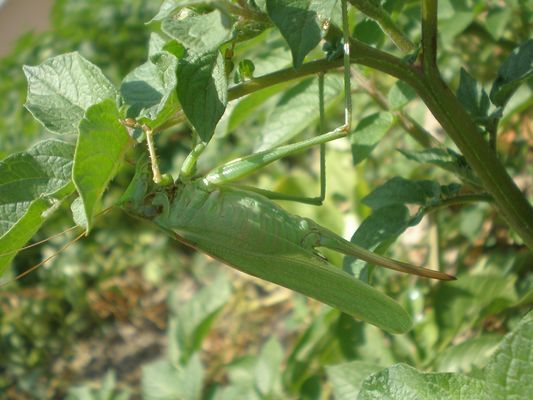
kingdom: Animalia
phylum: Arthropoda
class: Insecta
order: Orthoptera
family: Tettigoniidae
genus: Tettigonia
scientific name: Tettigonia viridissima
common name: Great green bush-cricket
